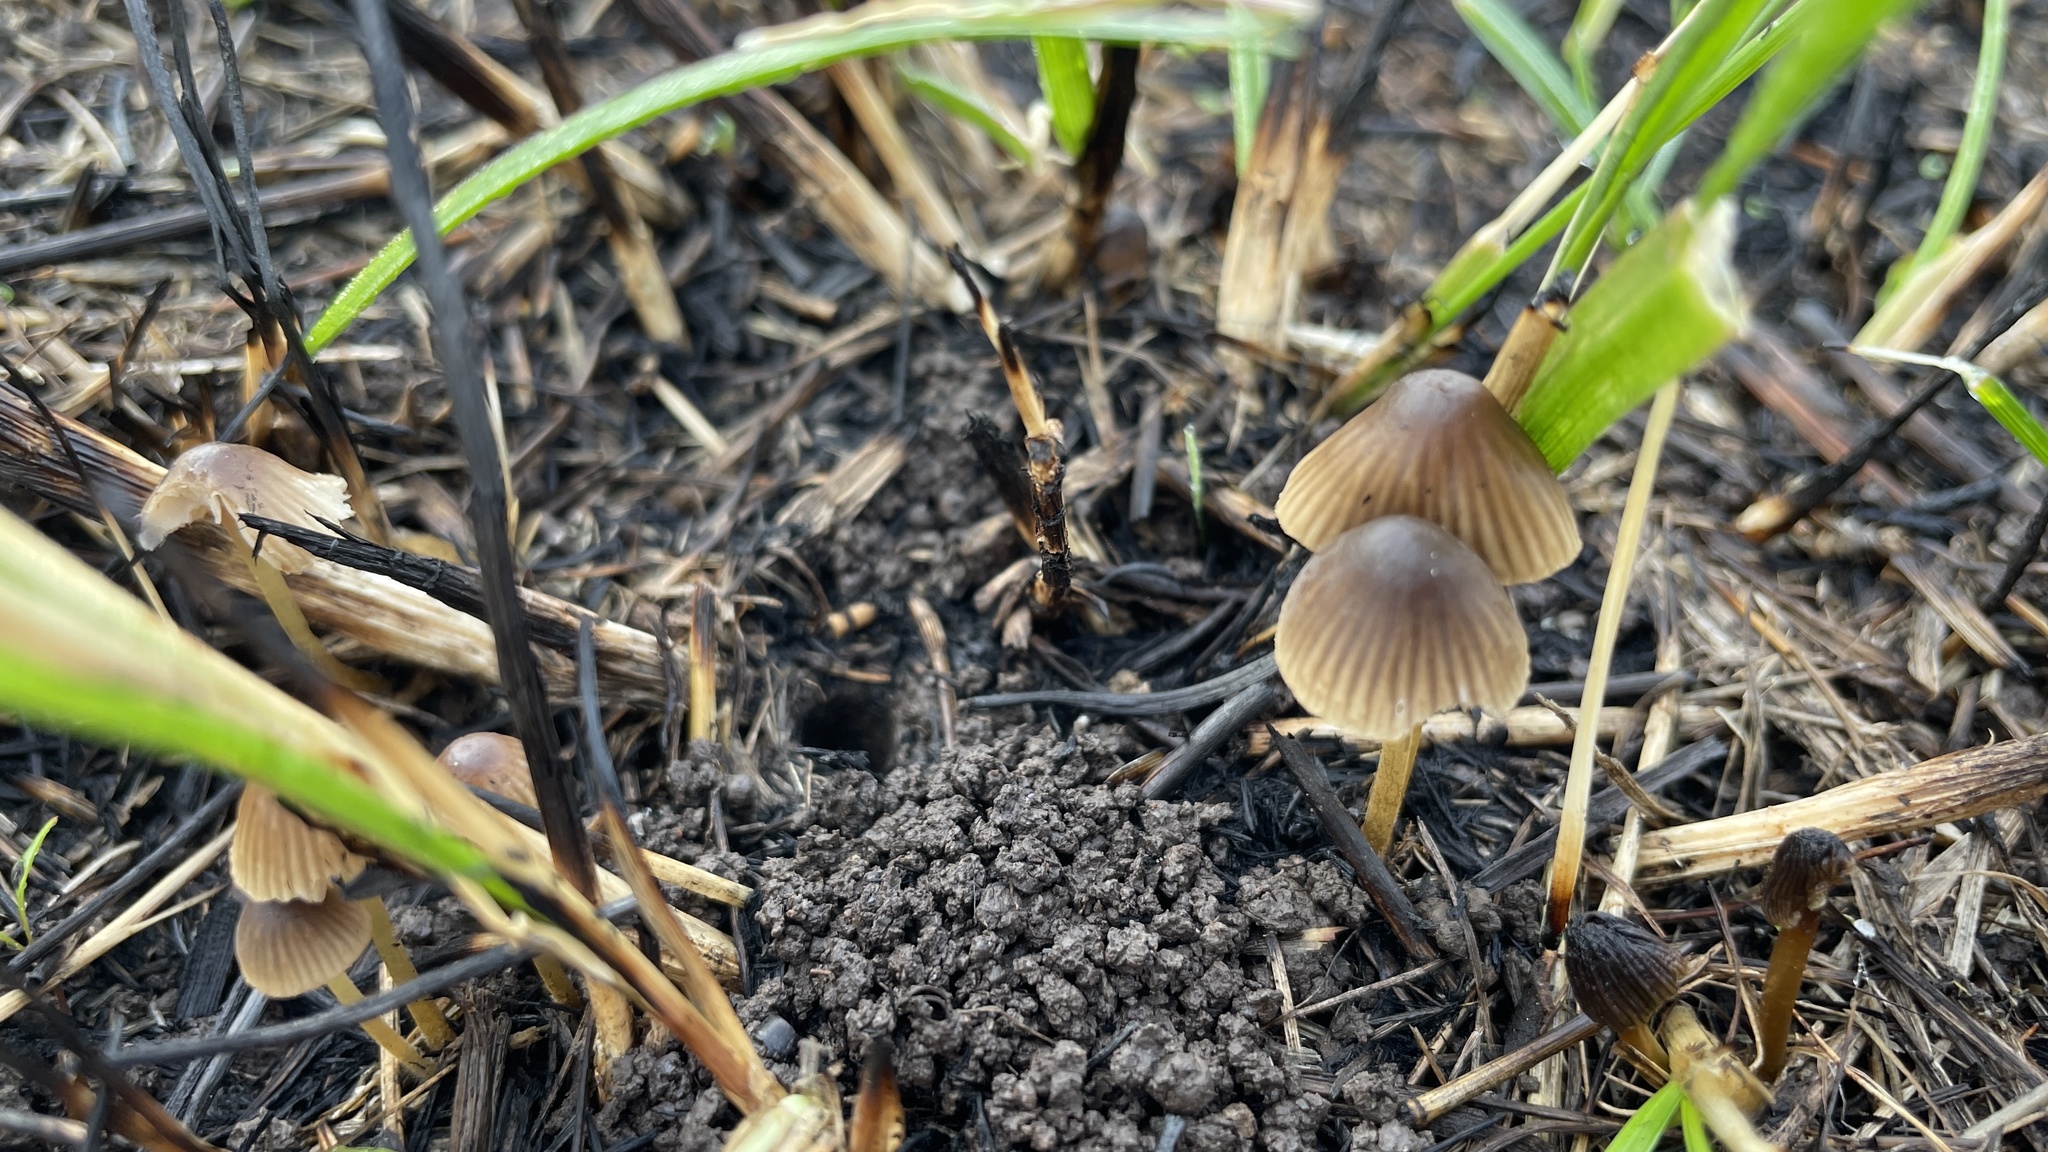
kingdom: Fungi
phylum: Basidiomycota
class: Agaricomycetes
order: Agaricales
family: Mycenaceae
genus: Mycena
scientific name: Mycena citrinomarginata
